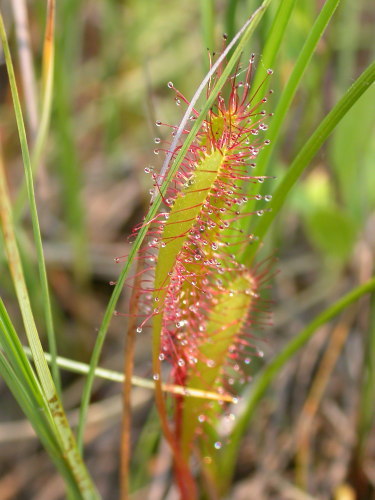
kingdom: Plantae
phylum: Tracheophyta
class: Magnoliopsida
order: Caryophyllales
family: Droseraceae
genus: Drosera
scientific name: Drosera anglica
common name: Great sundew
